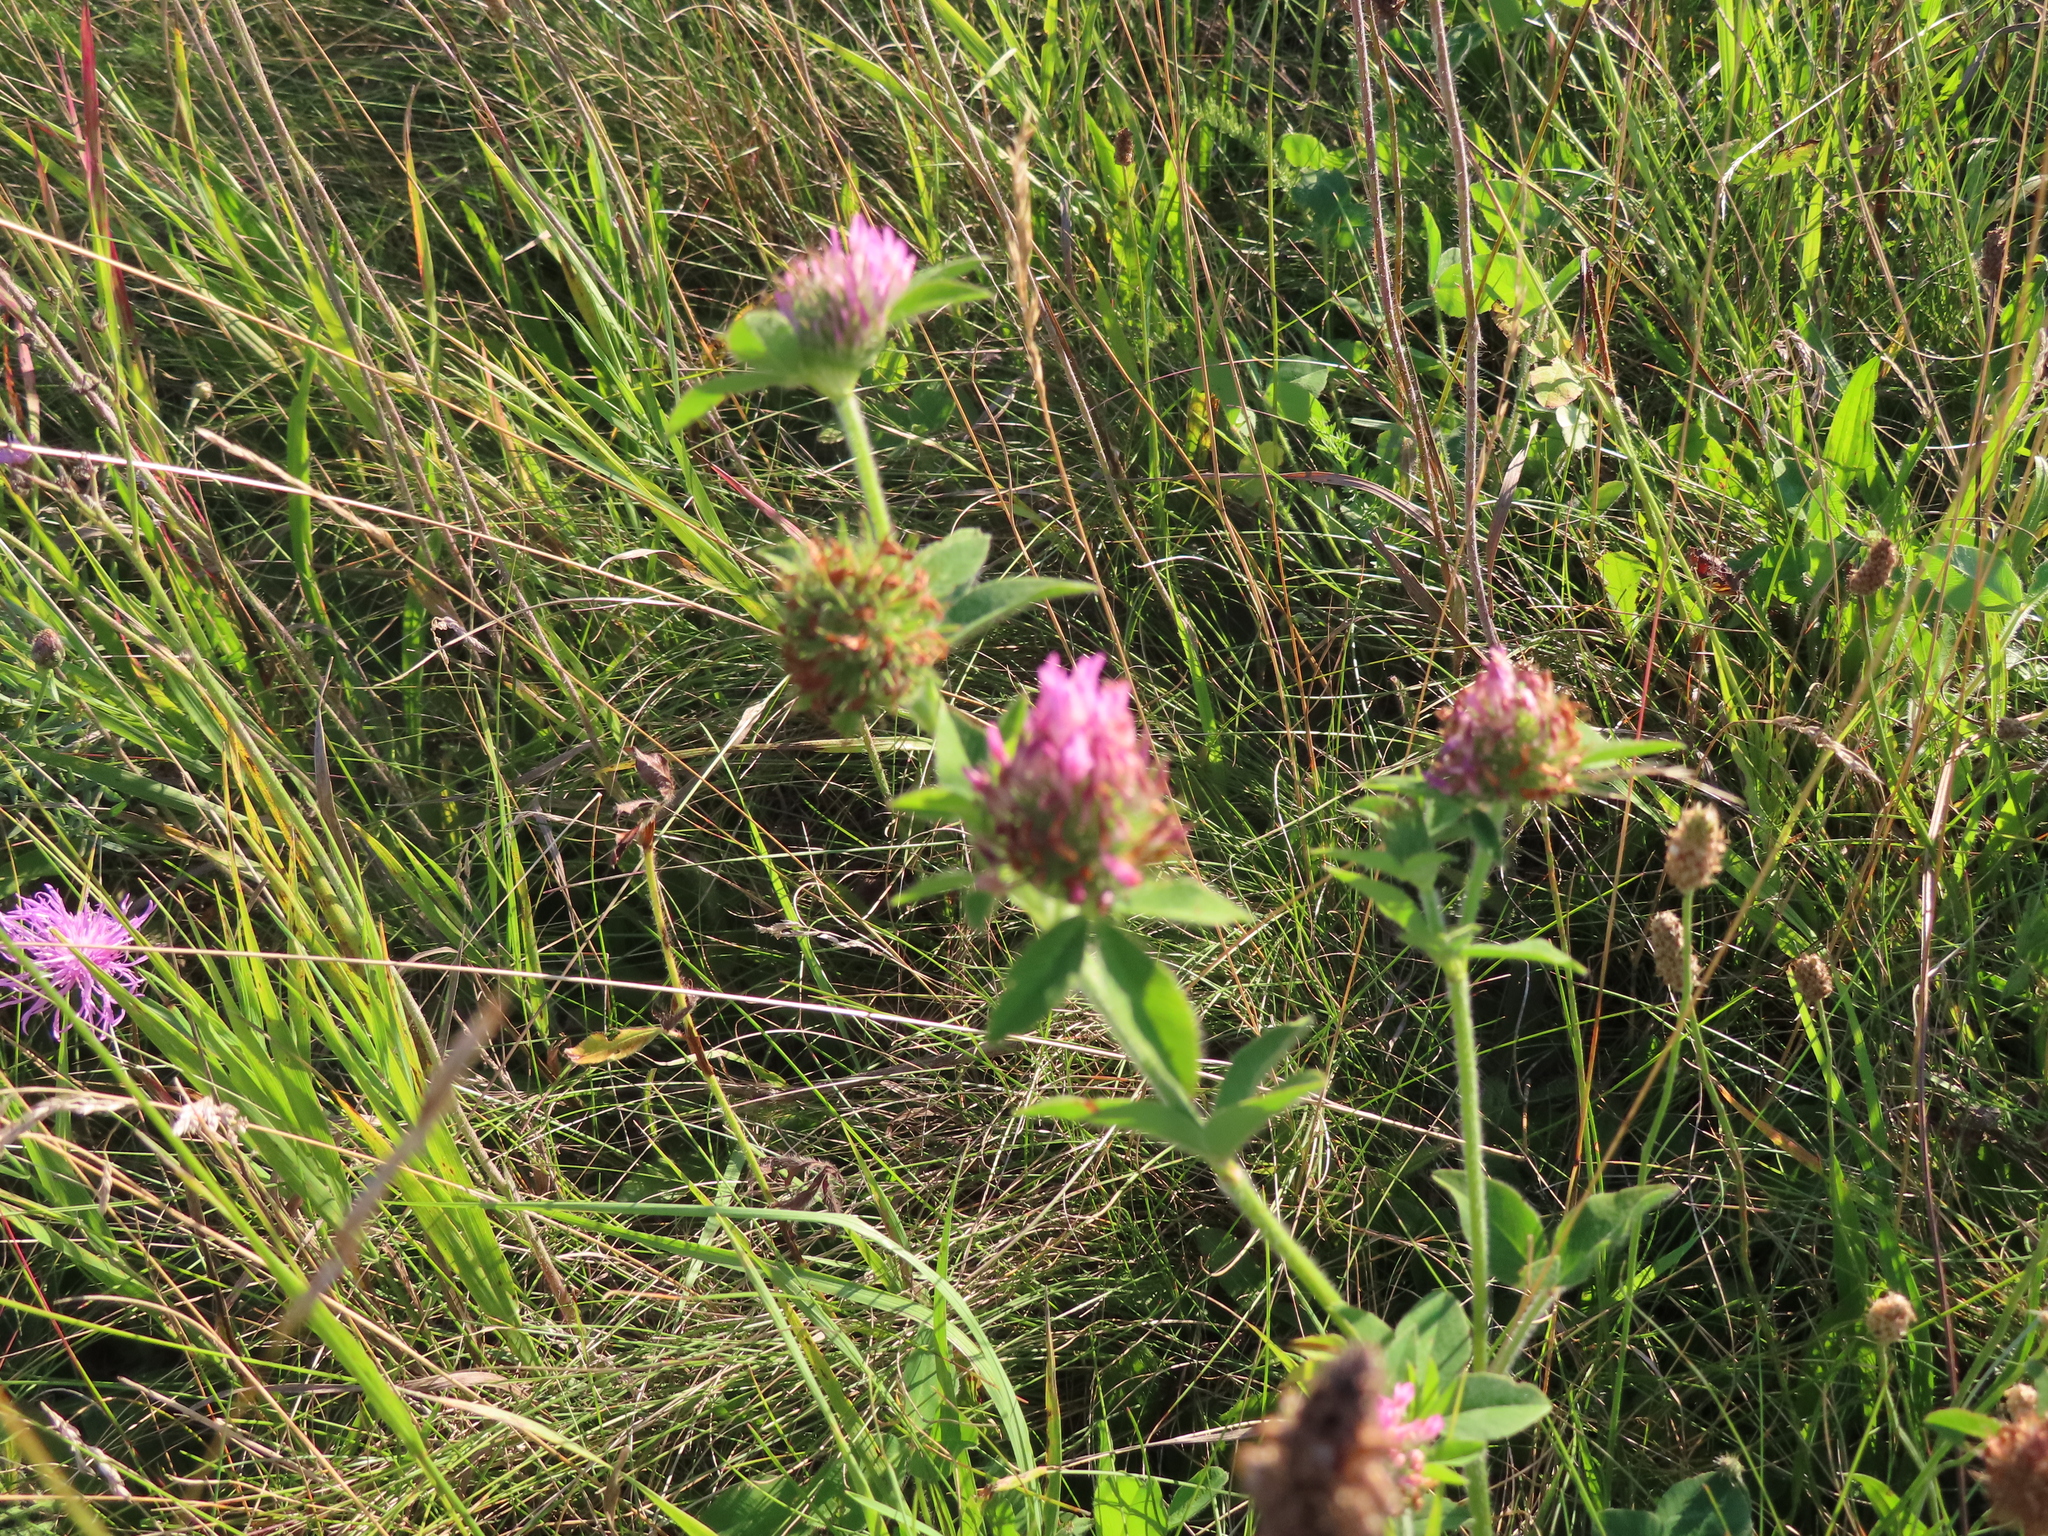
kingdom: Plantae
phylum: Tracheophyta
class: Magnoliopsida
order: Fabales
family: Fabaceae
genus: Trifolium
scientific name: Trifolium pratense
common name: Red clover
